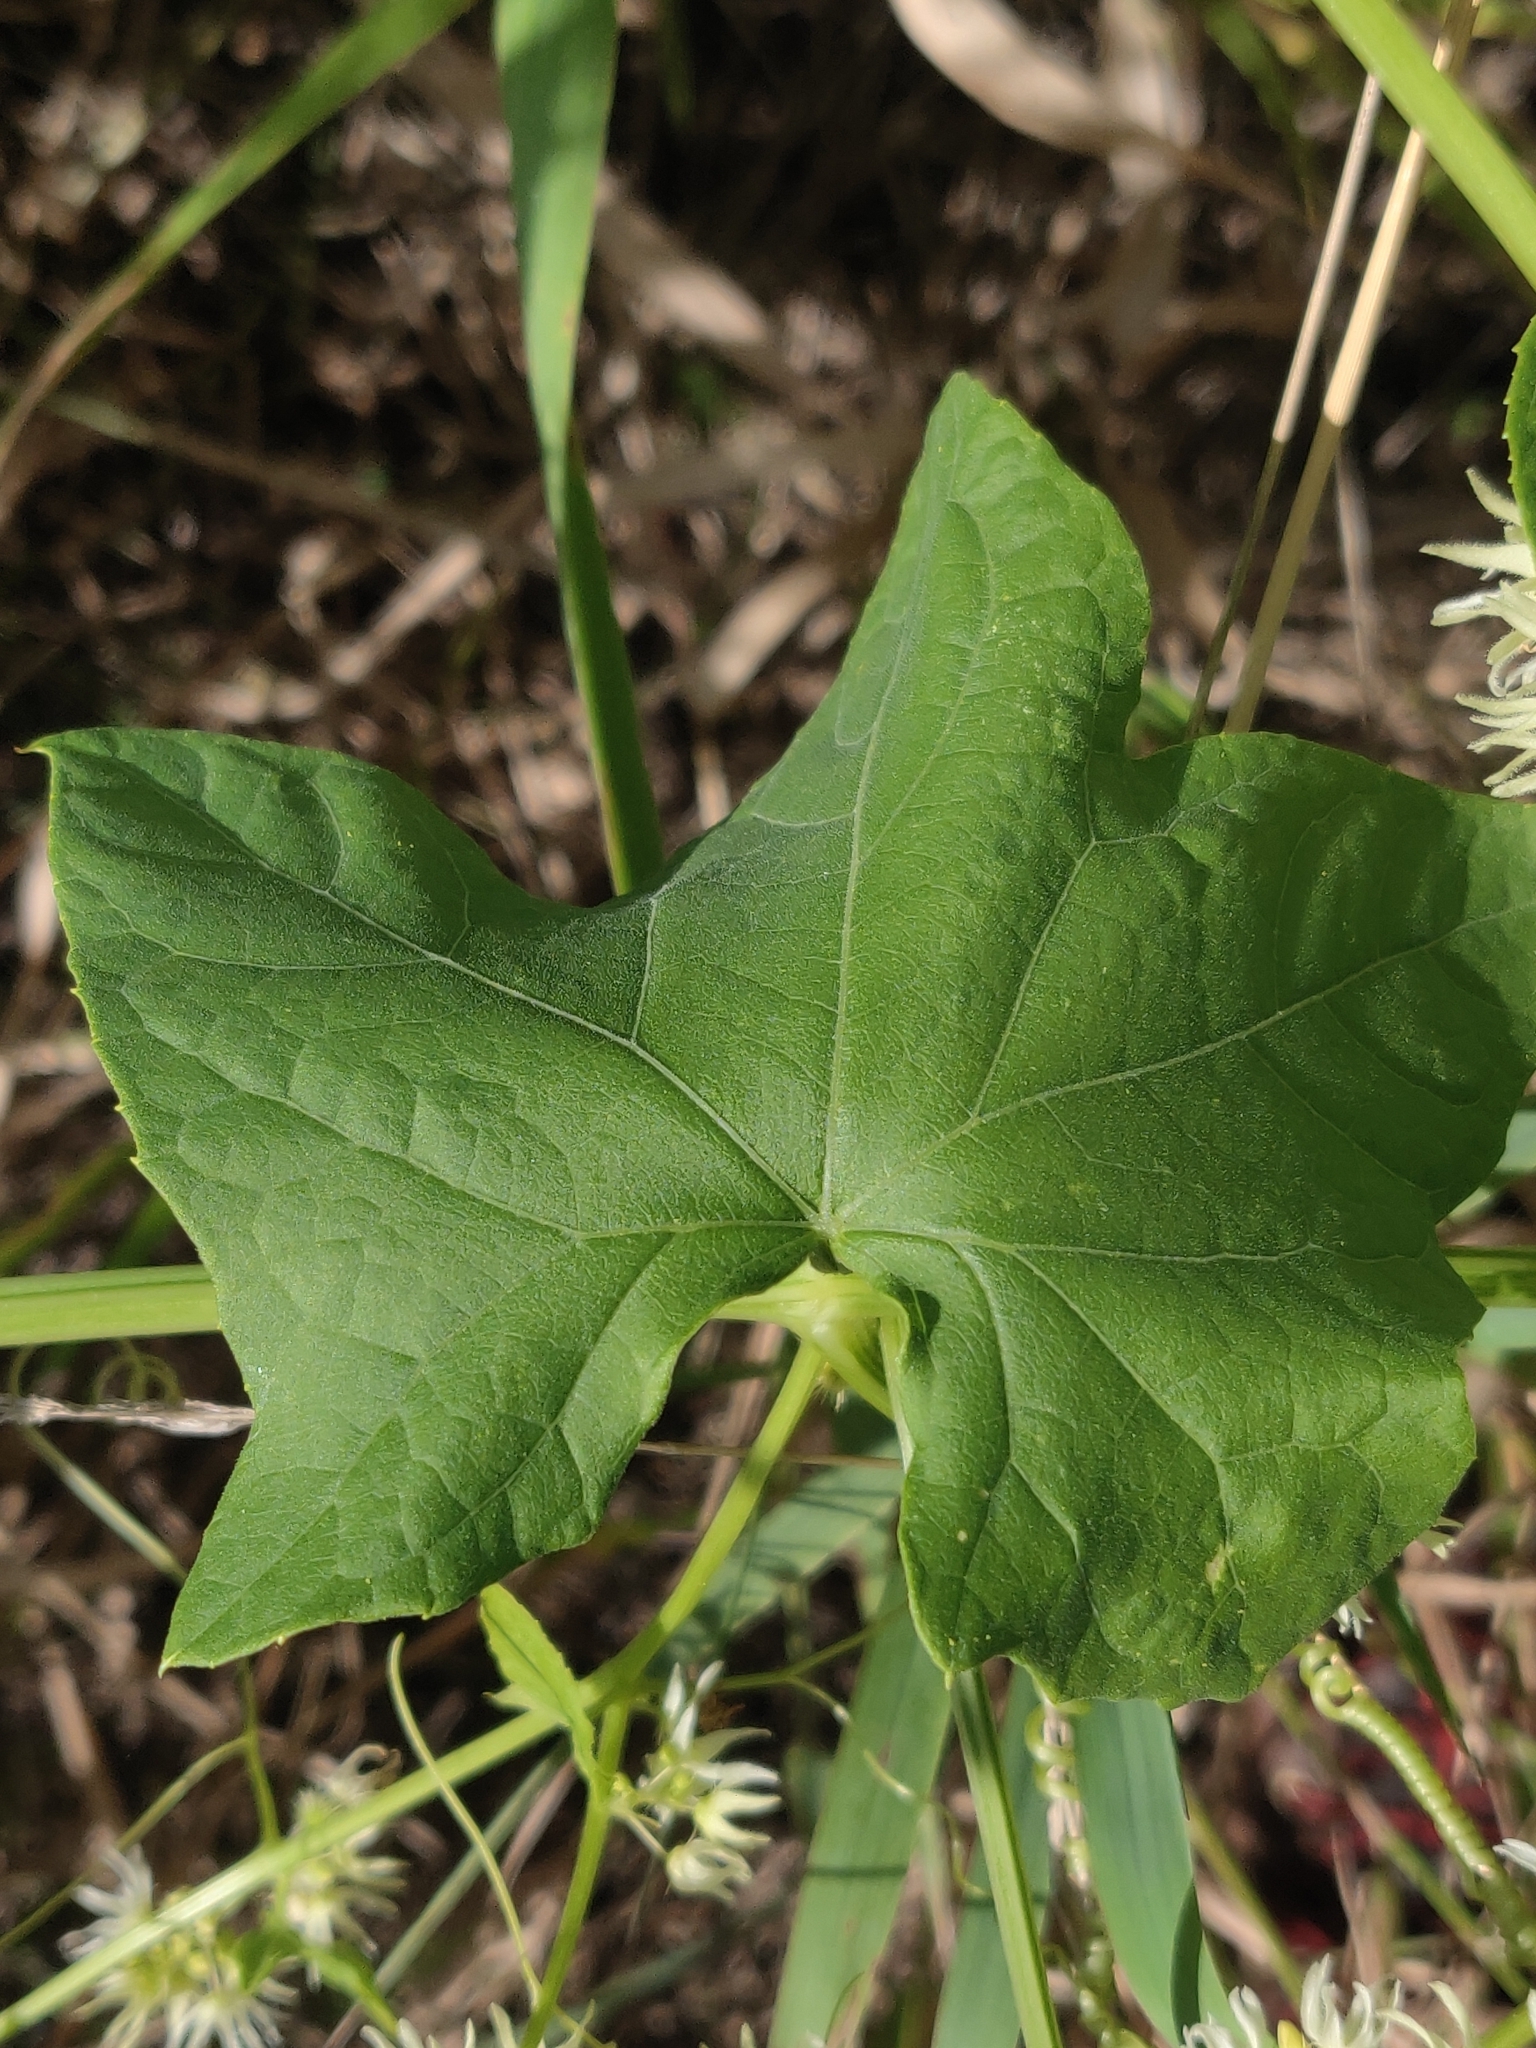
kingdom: Plantae
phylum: Tracheophyta
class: Magnoliopsida
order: Cucurbitales
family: Cucurbitaceae
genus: Echinocystis
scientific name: Echinocystis lobata
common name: Wild cucumber
